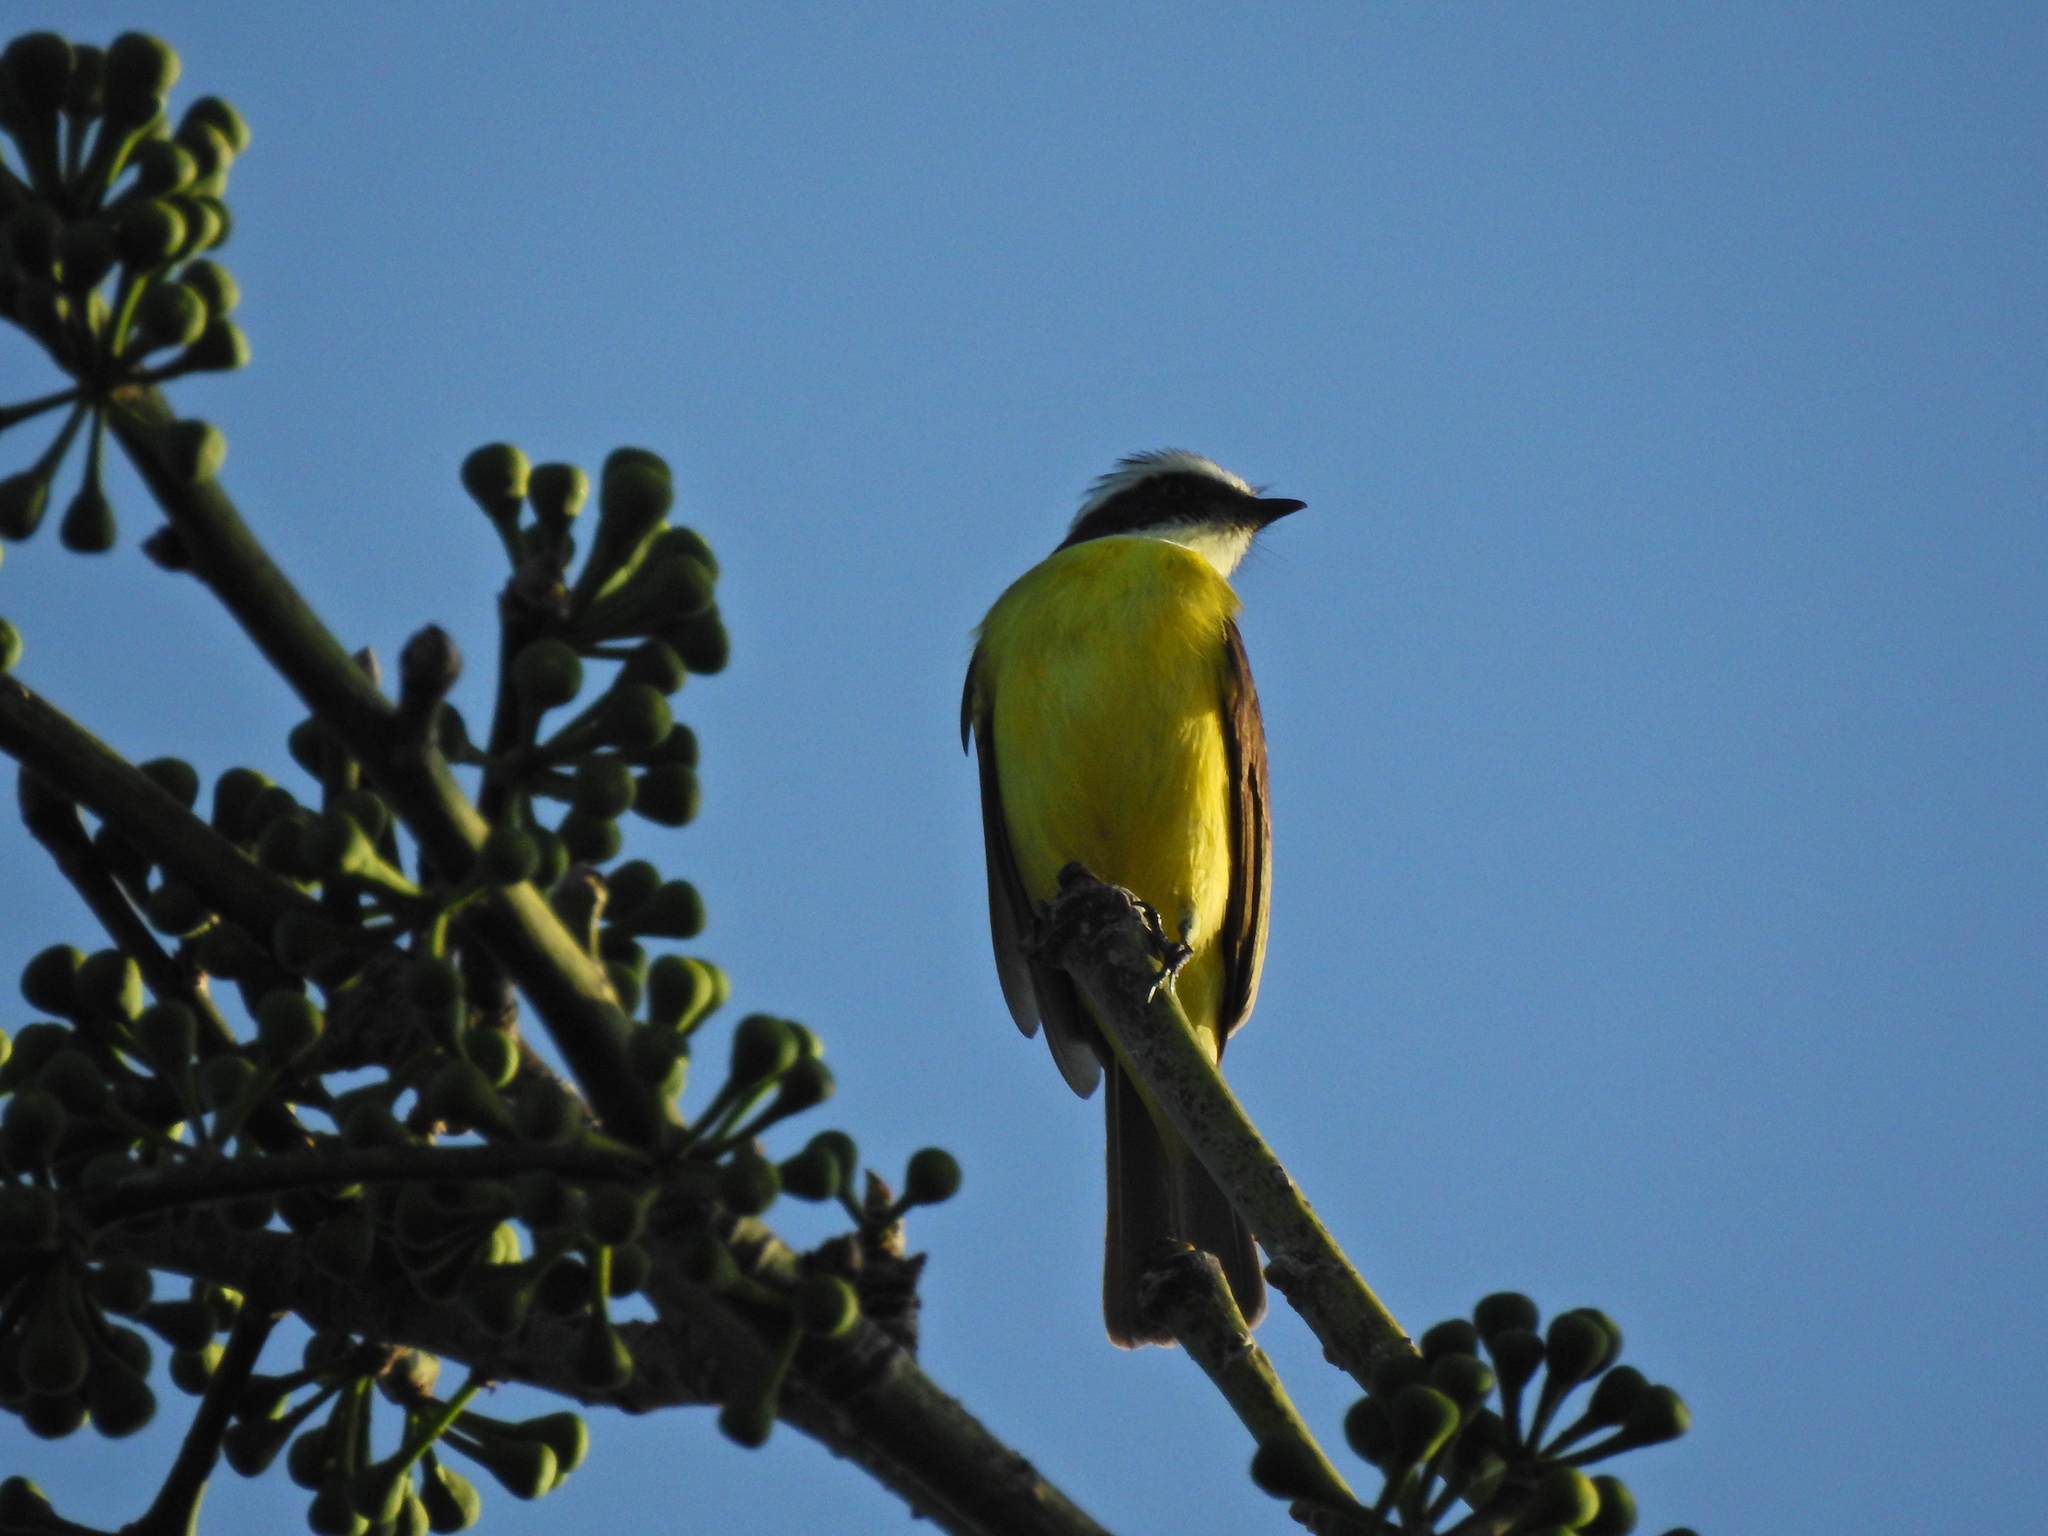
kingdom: Animalia
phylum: Chordata
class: Aves
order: Passeriformes
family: Tyrannidae
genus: Pitangus
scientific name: Pitangus sulphuratus
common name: Great kiskadee
